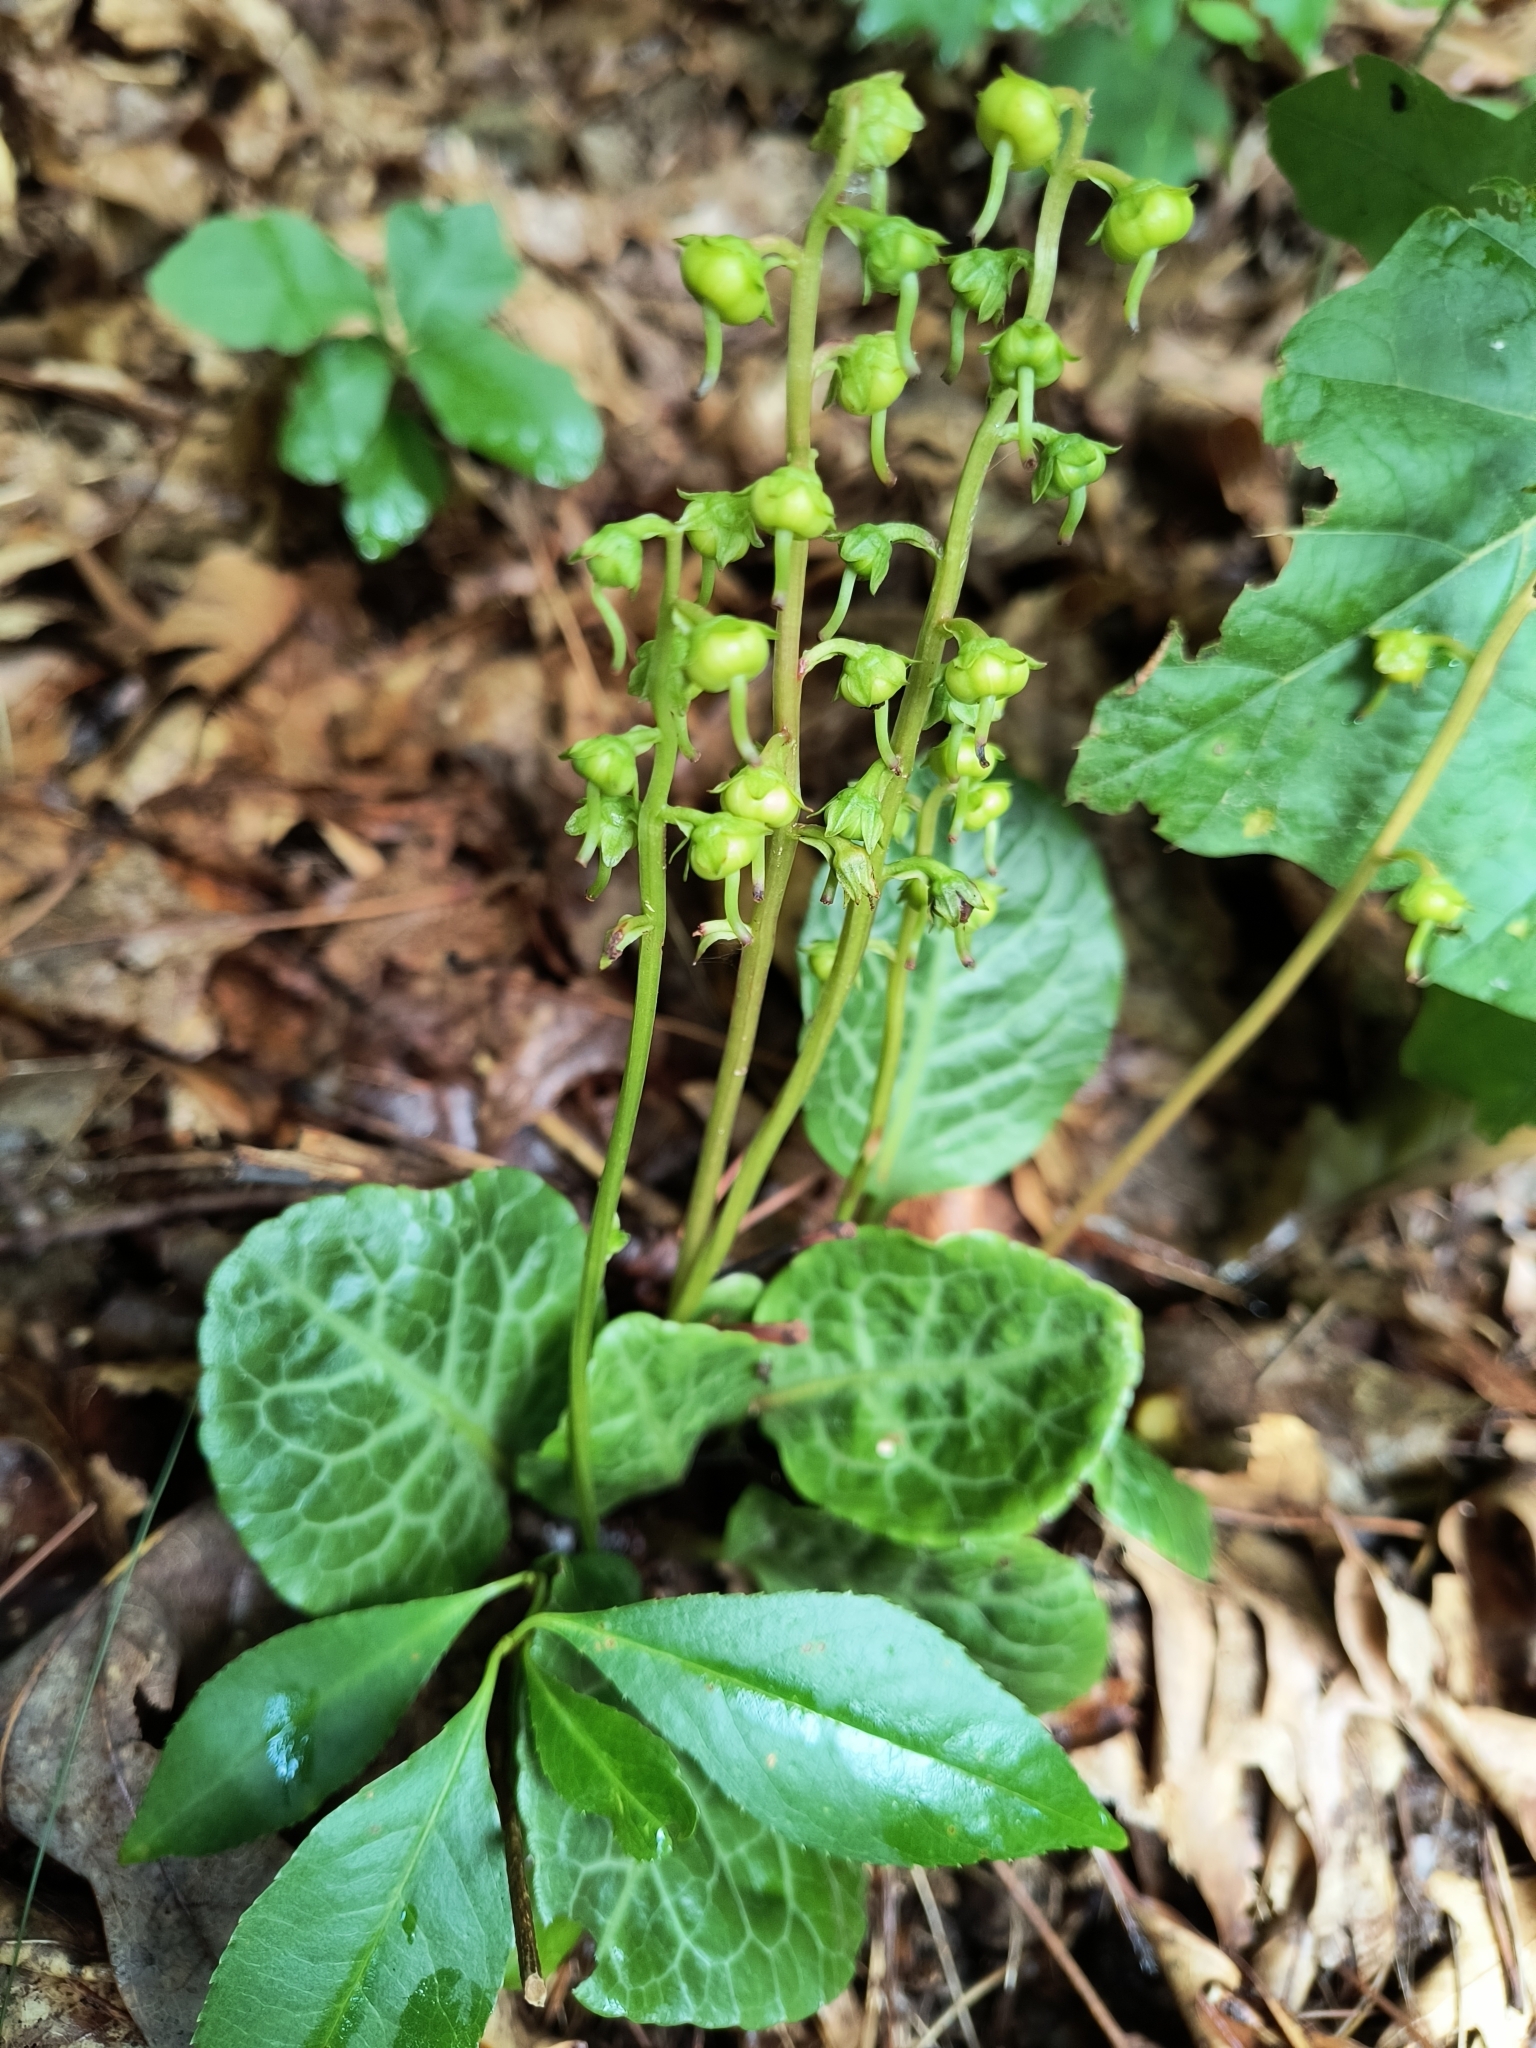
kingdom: Plantae
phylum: Tracheophyta
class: Magnoliopsida
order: Ericales
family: Ericaceae
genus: Pyrola
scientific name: Pyrola americana
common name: American wintergreen
